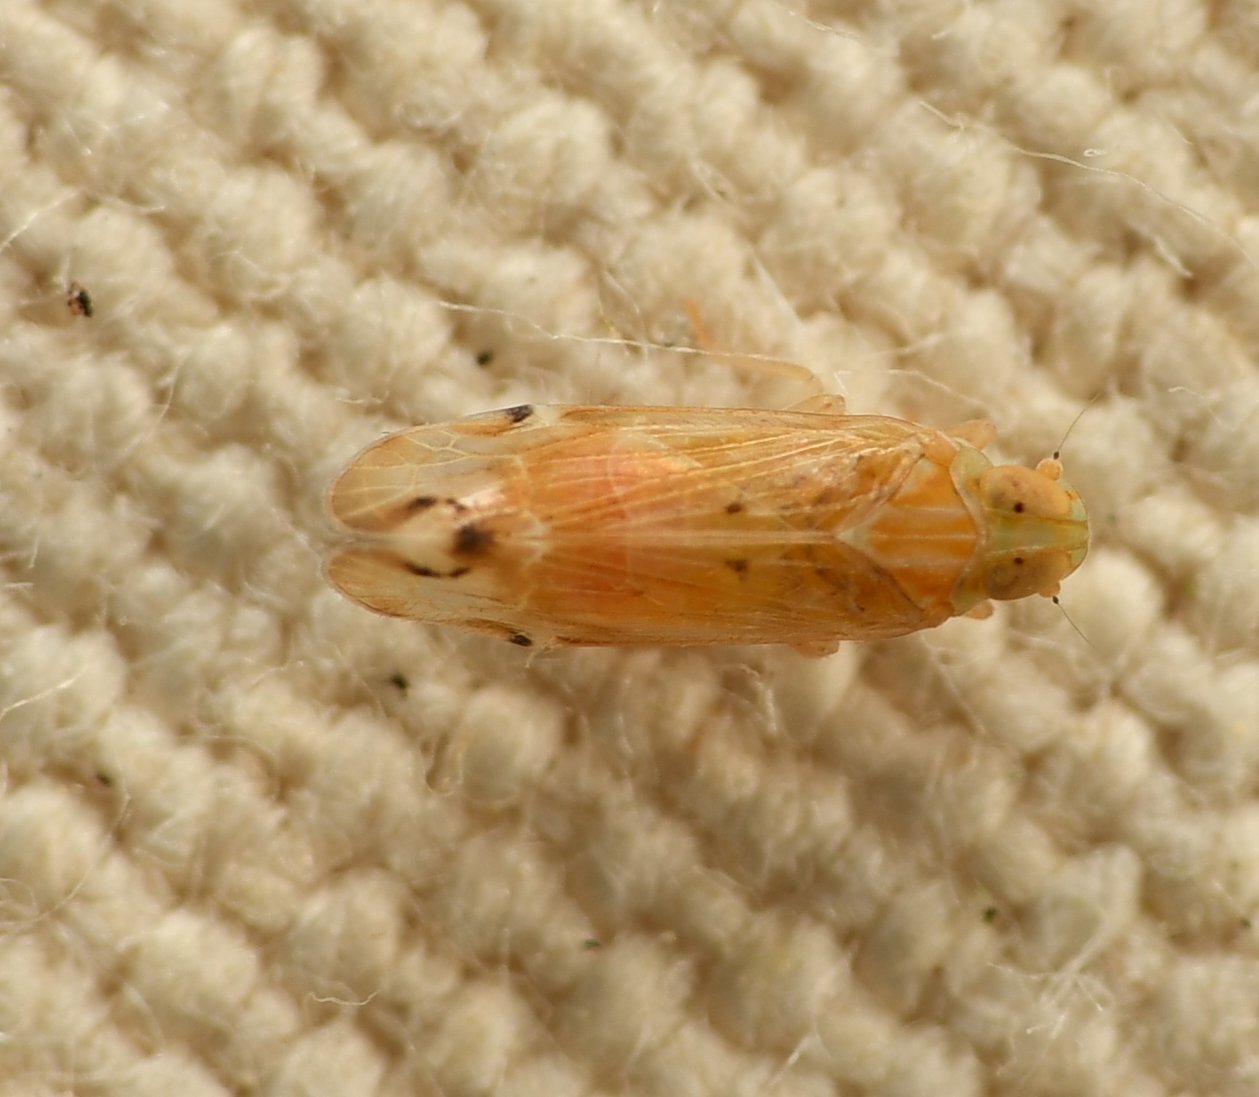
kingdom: Animalia
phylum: Arthropoda
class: Insecta
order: Hemiptera
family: Cixiidae
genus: Haplaxius
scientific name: Haplaxius lunatus
